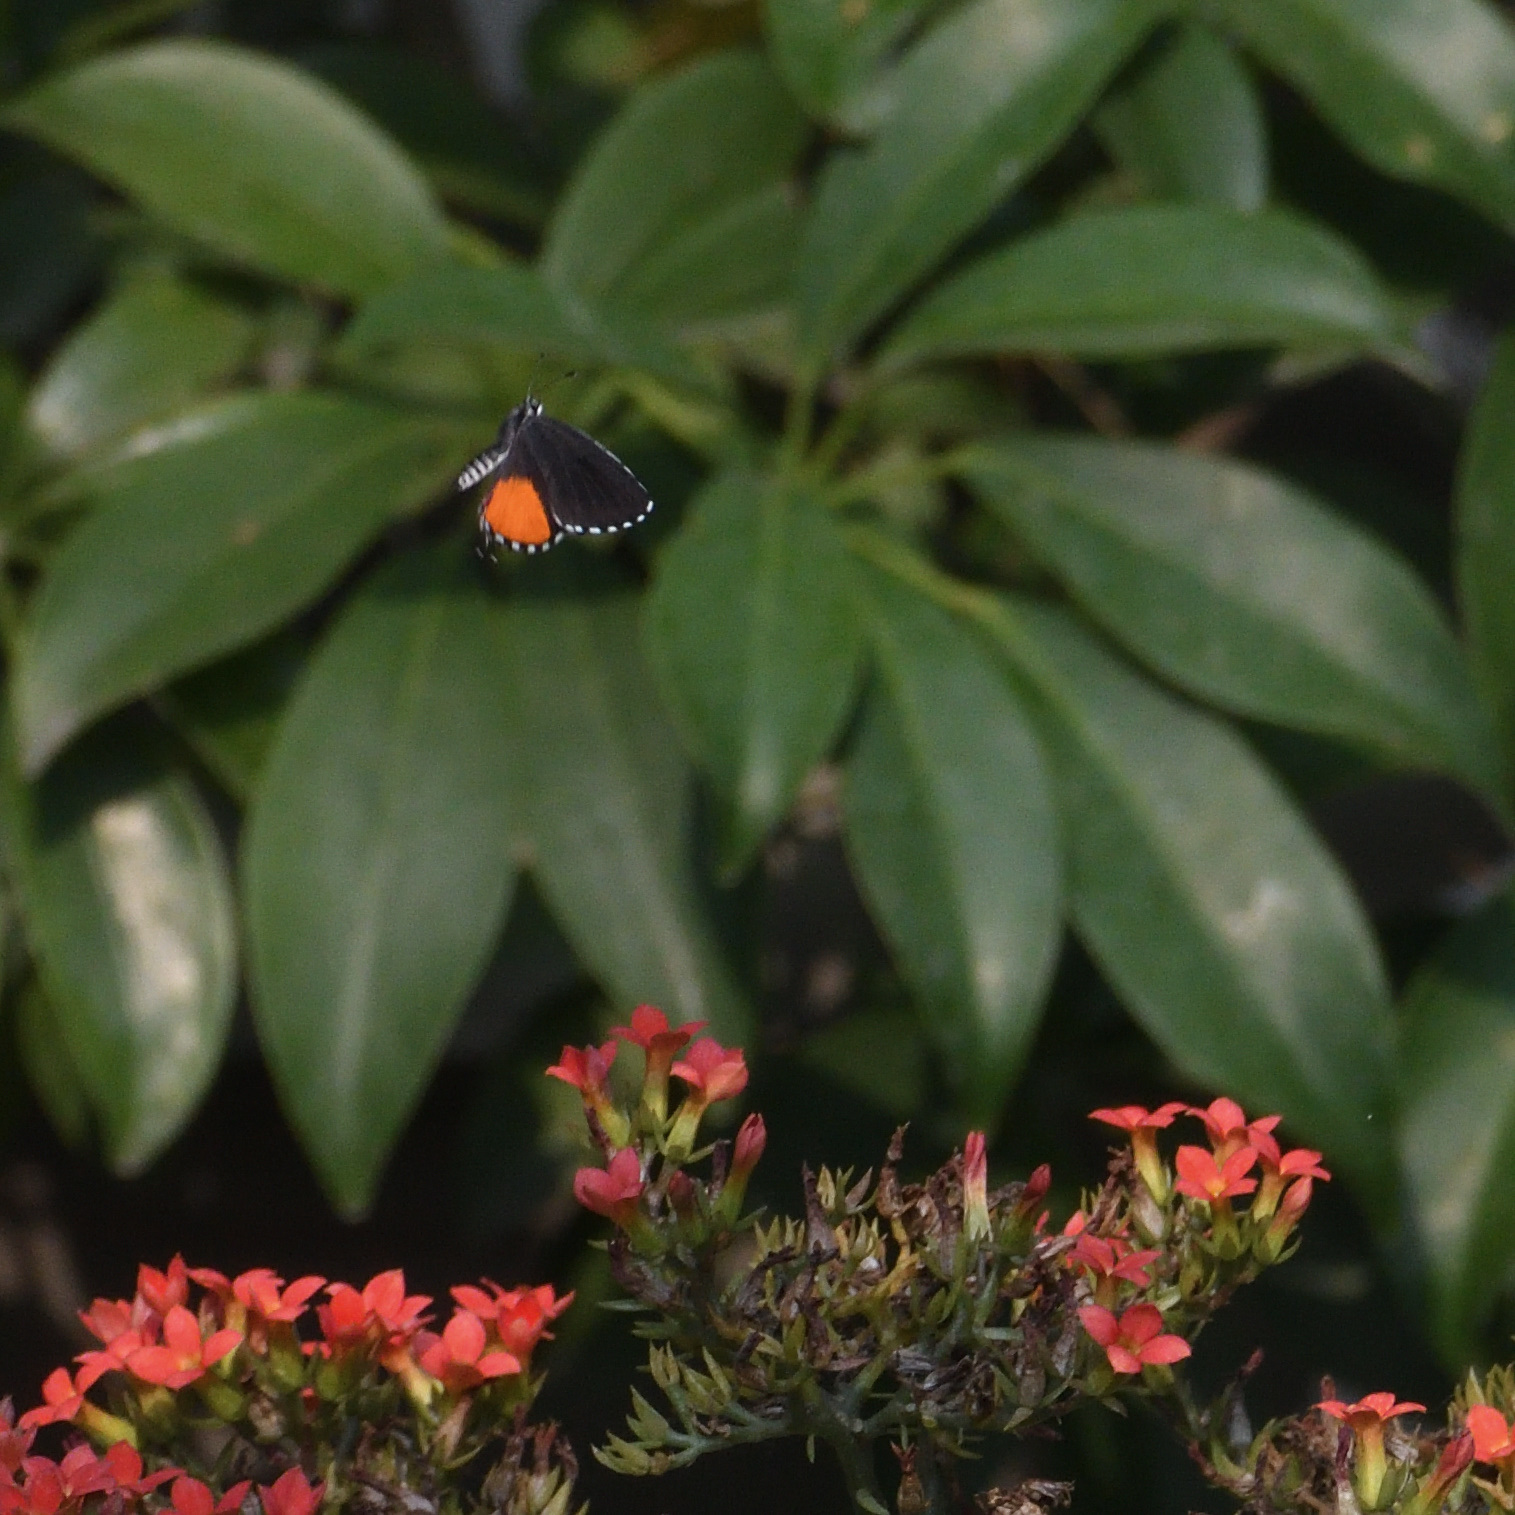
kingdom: Animalia
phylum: Arthropoda
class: Insecta
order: Lepidoptera
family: Lycaenidae
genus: Talicada
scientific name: Talicada nyseus
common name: Red pierrot
